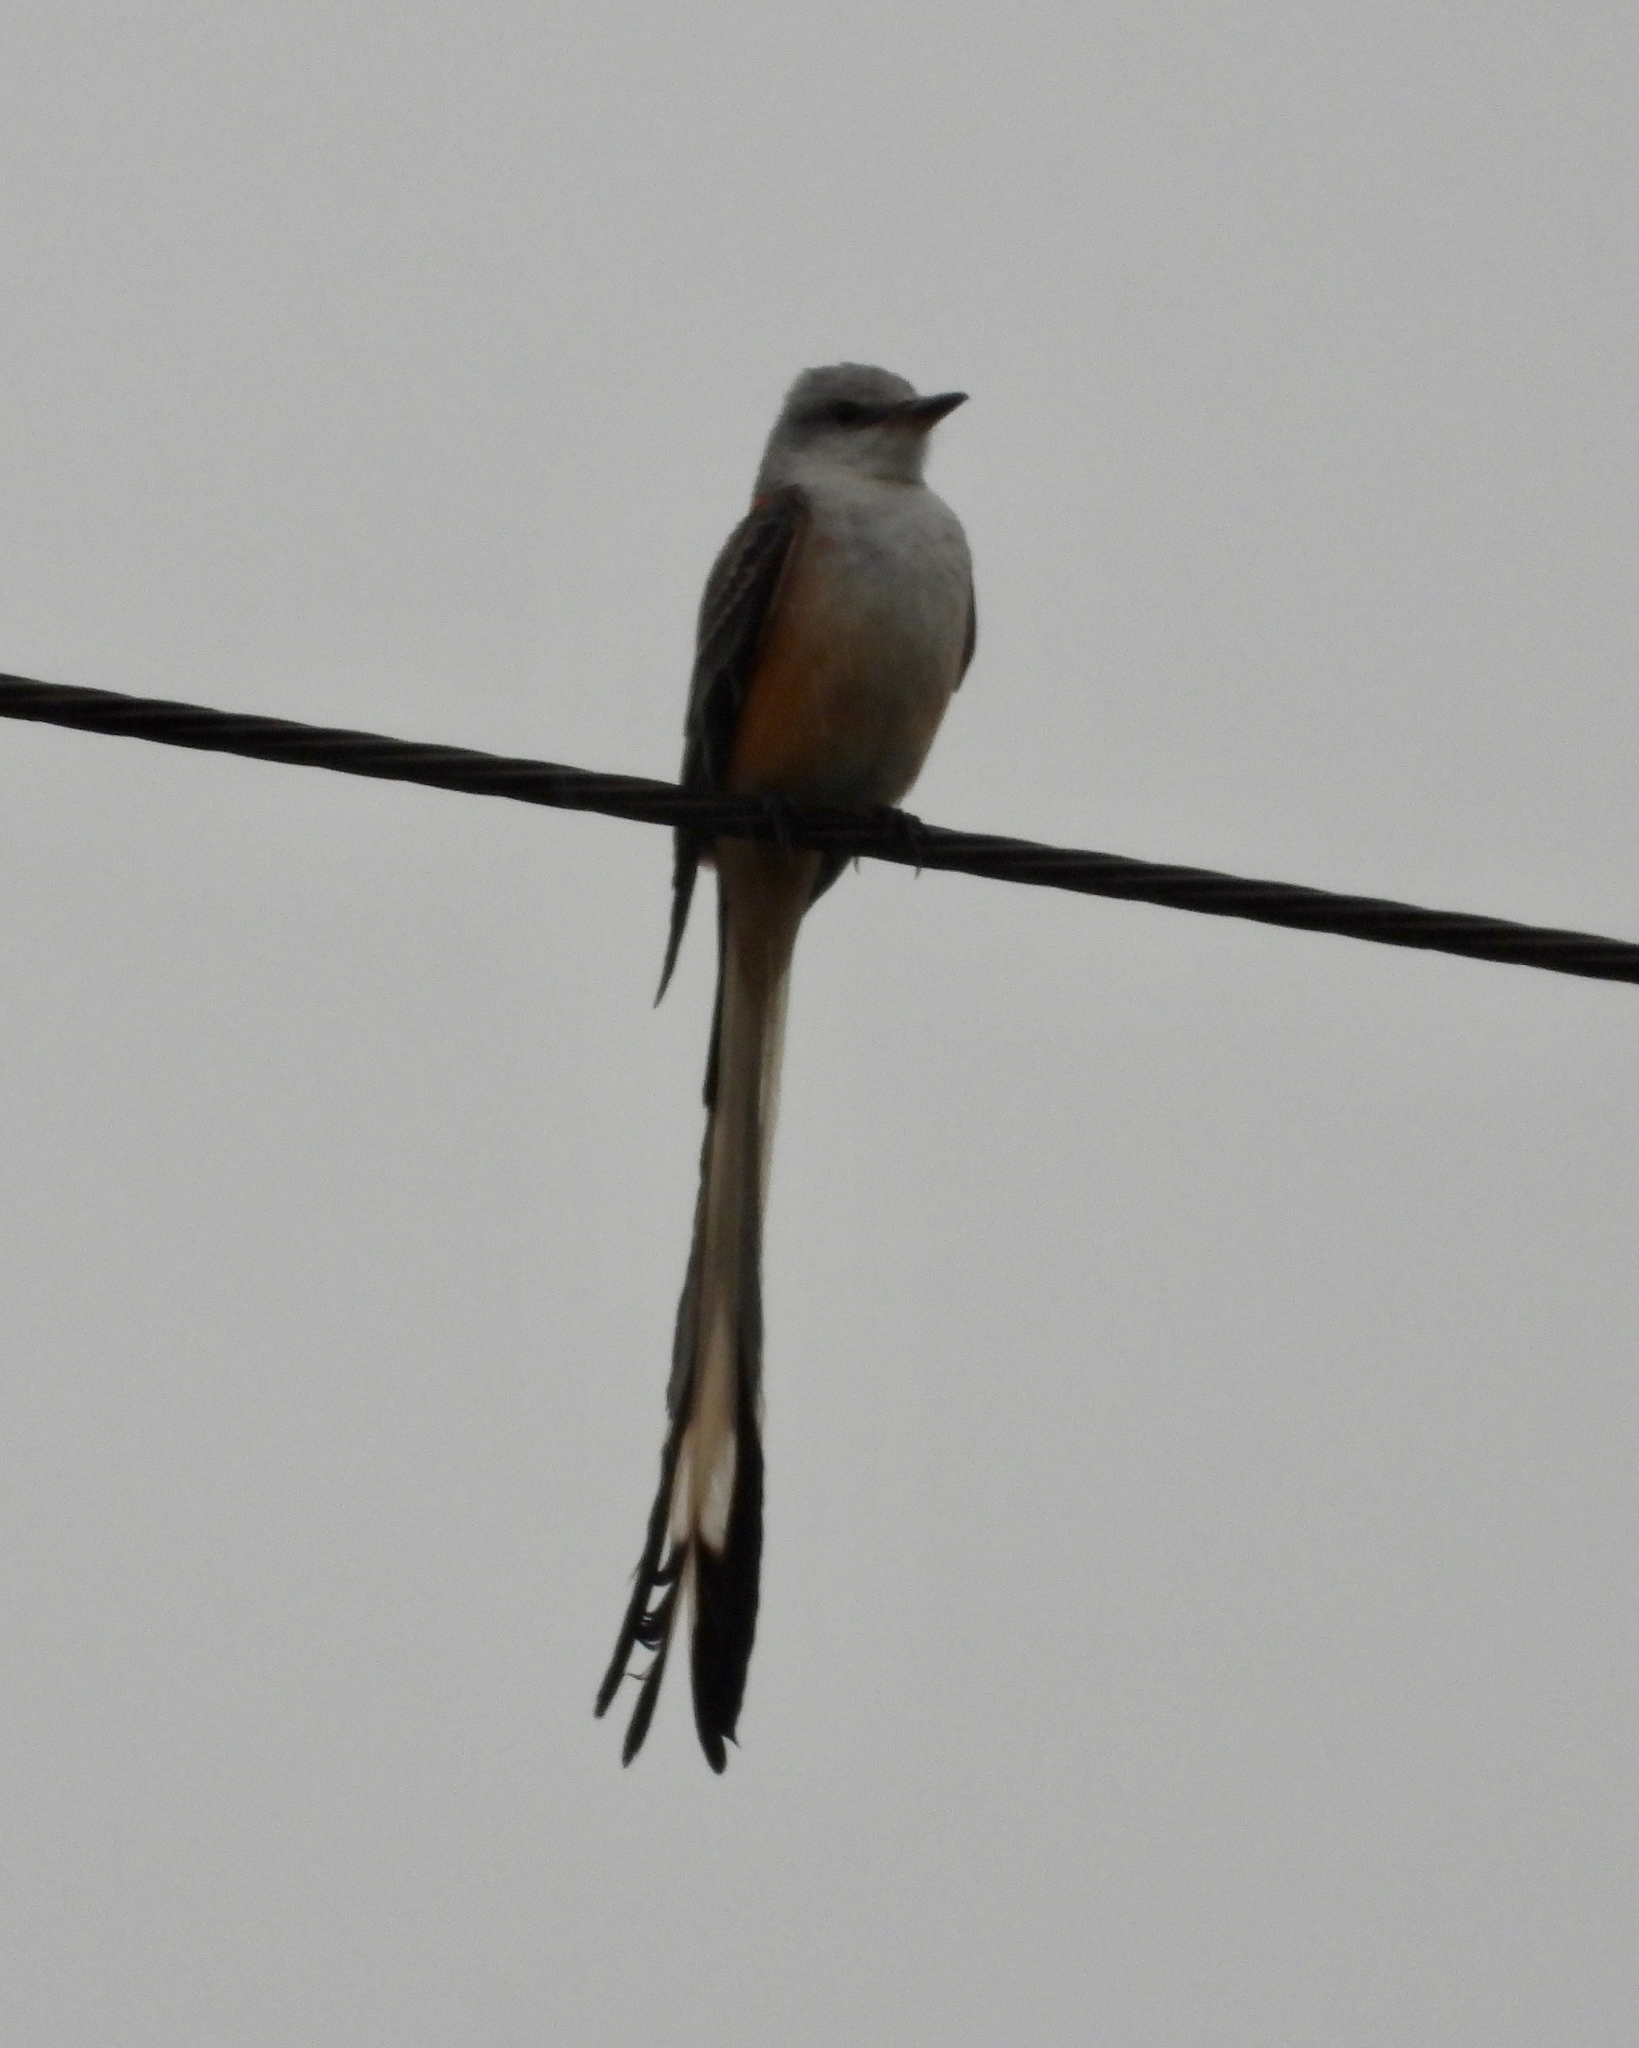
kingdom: Animalia
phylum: Chordata
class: Aves
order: Passeriformes
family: Tyrannidae
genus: Tyrannus
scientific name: Tyrannus forficatus
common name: Scissor-tailed flycatcher
